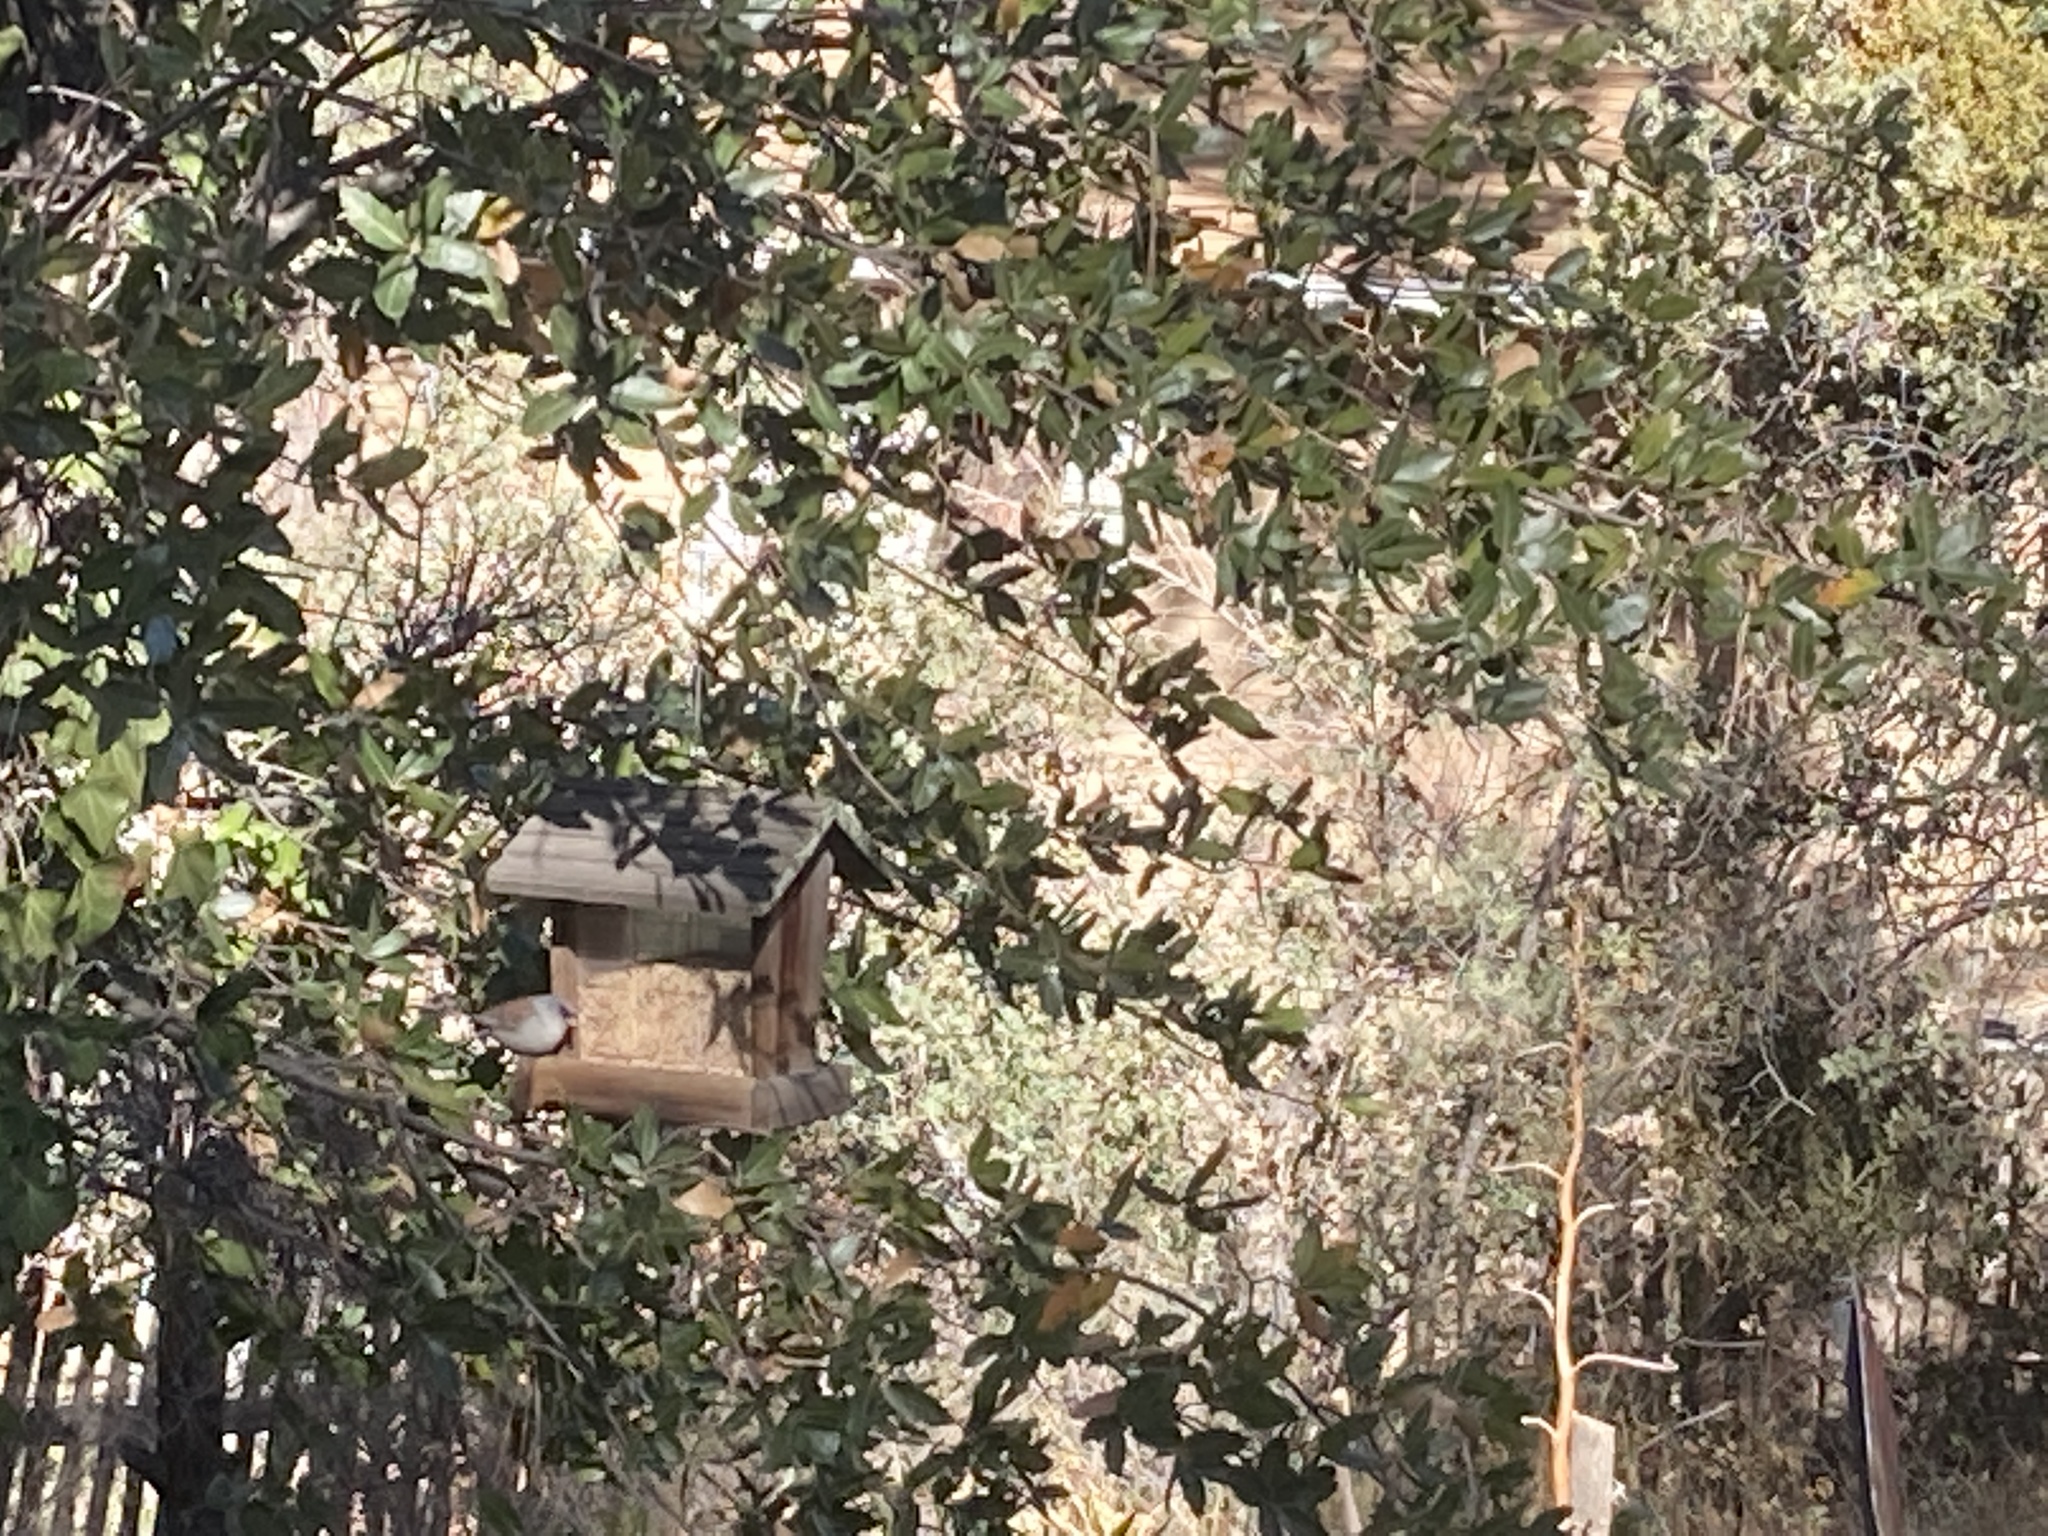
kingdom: Animalia
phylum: Chordata
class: Aves
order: Passeriformes
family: Passerellidae
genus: Junco
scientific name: Junco hyemalis
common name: Dark-eyed junco
